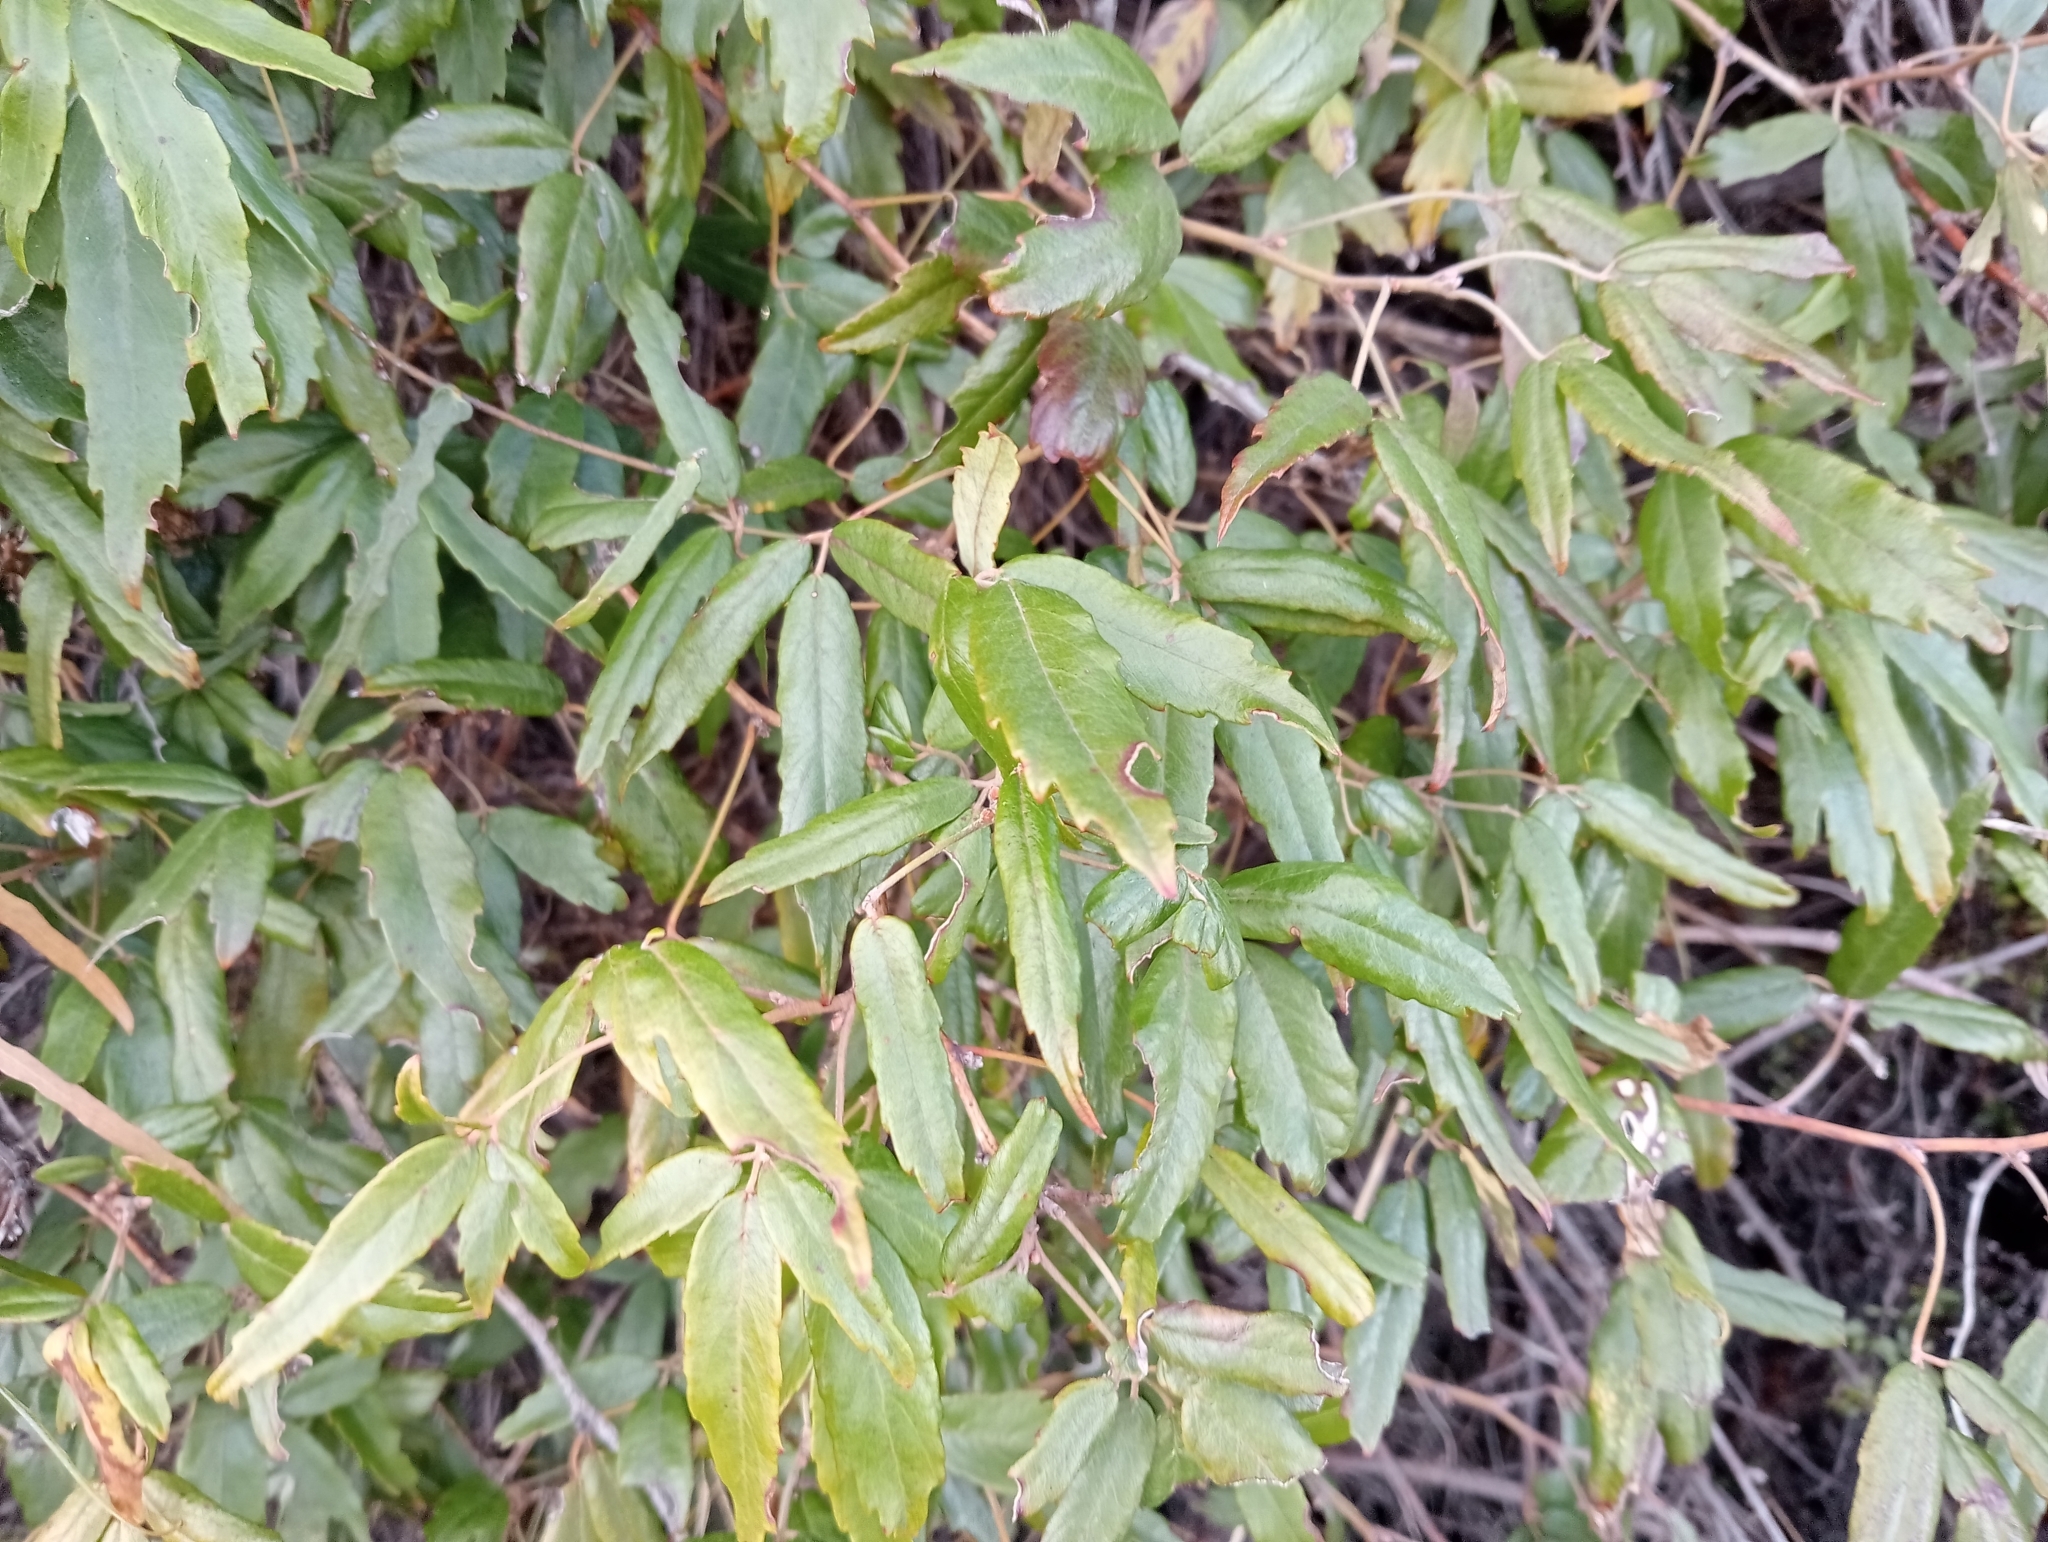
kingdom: Plantae
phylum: Tracheophyta
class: Magnoliopsida
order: Rosales
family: Rosaceae
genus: Rubus
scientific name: Rubus schmidelioides
